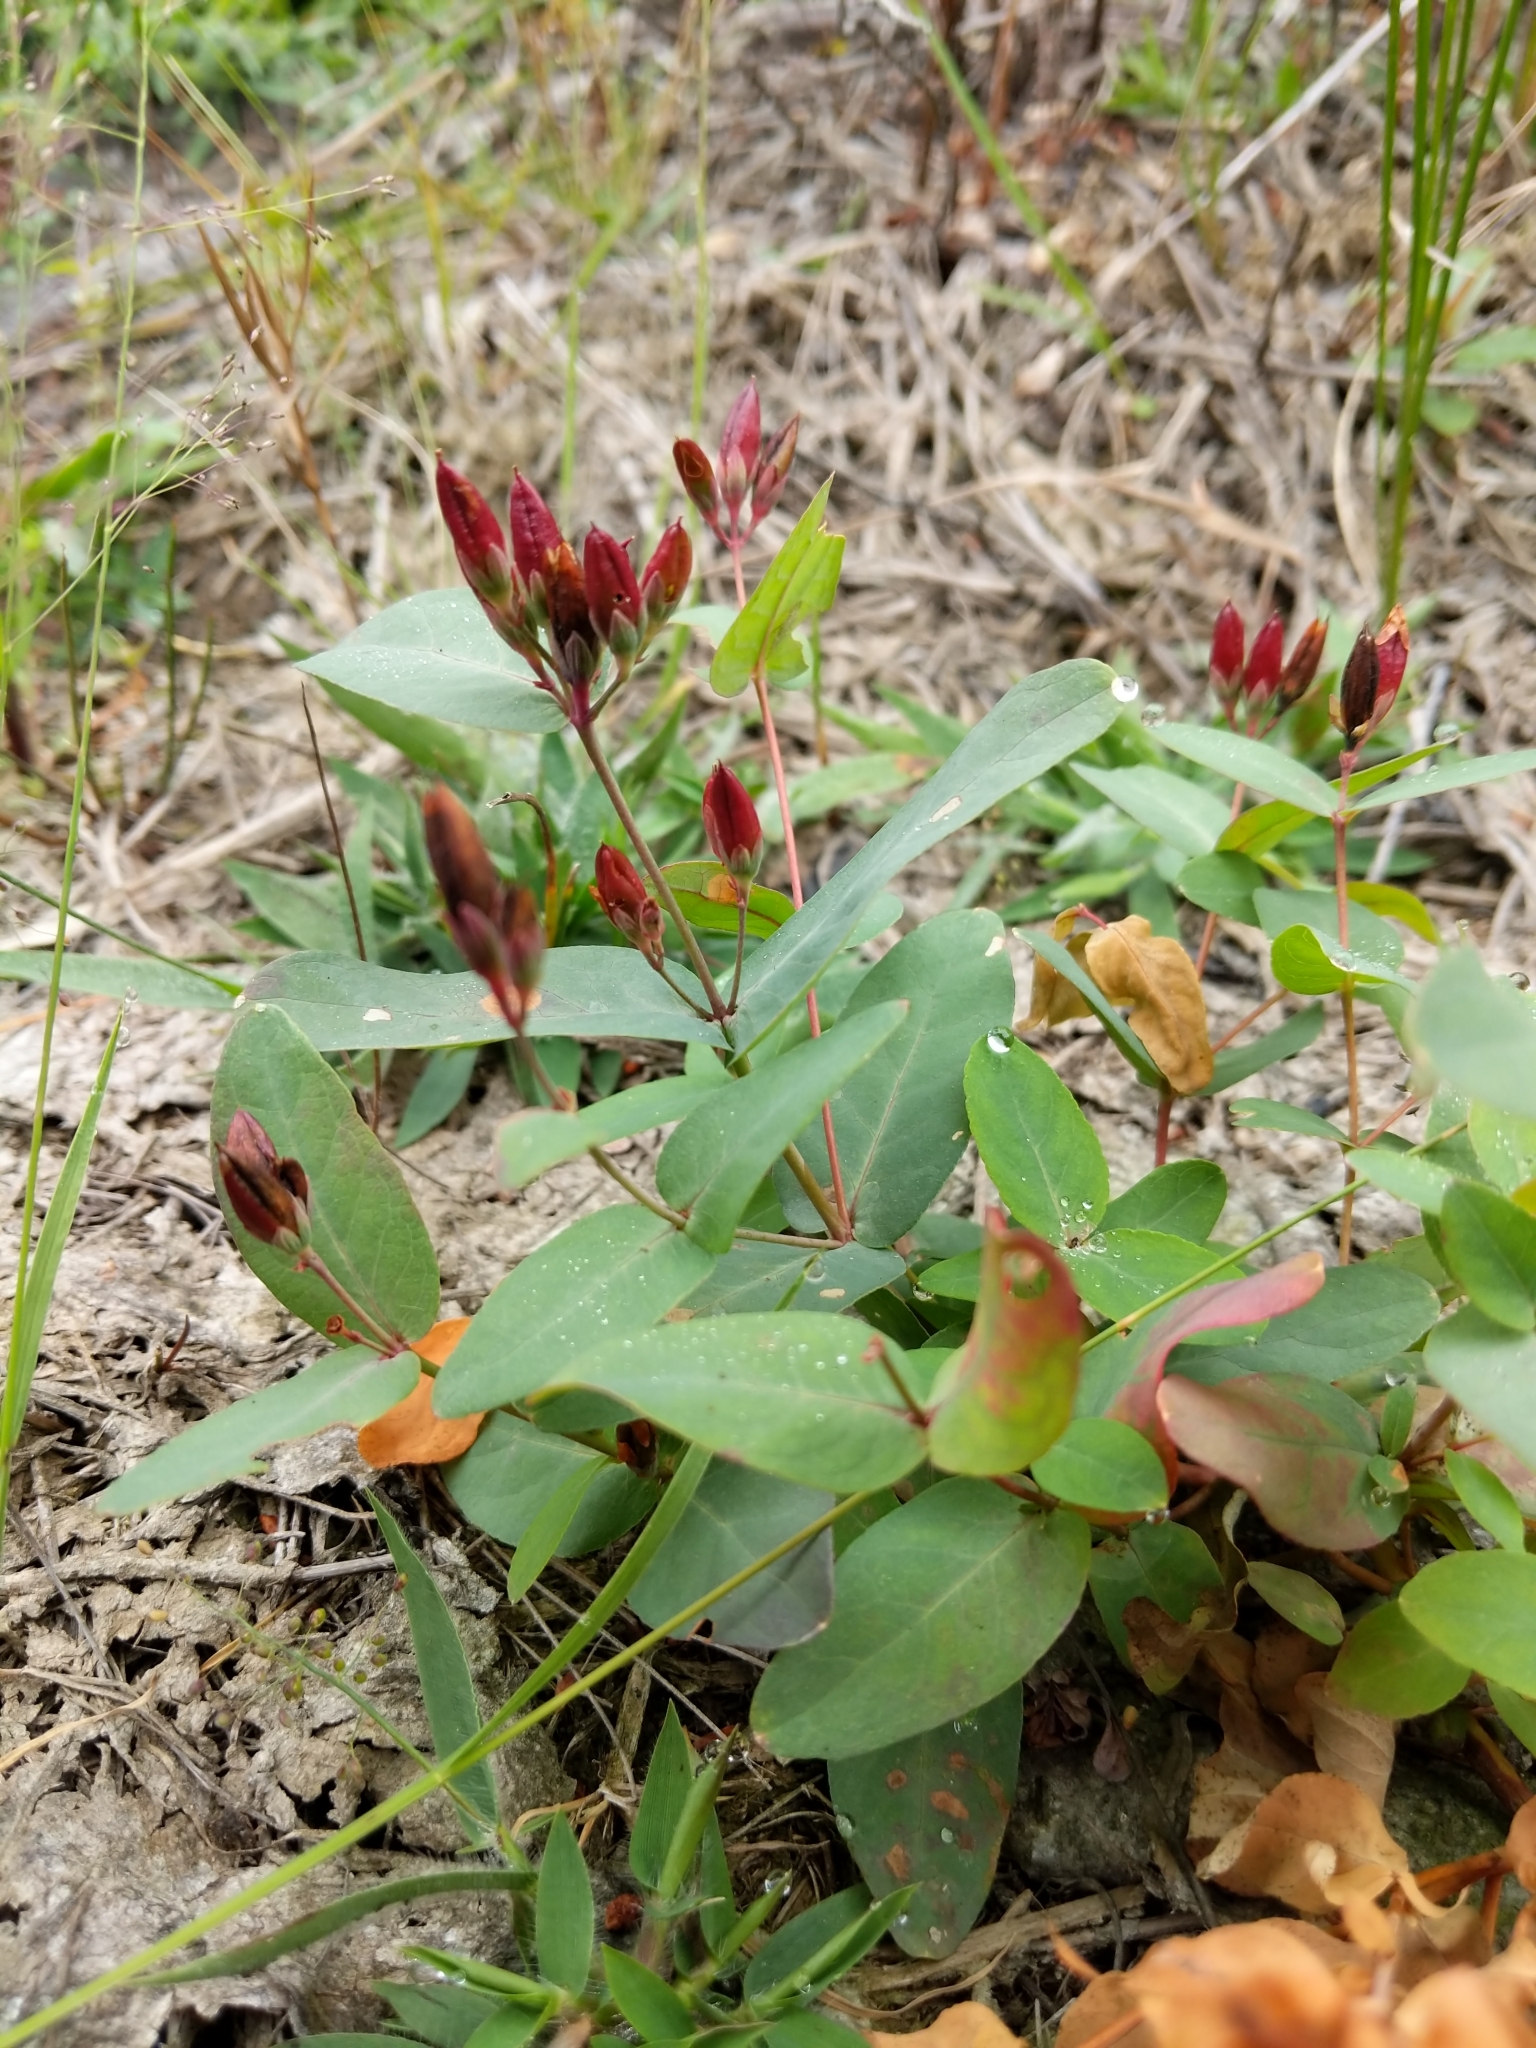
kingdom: Plantae
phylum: Tracheophyta
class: Magnoliopsida
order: Malpighiales
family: Hypericaceae
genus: Triadenum
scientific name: Triadenum fraseri
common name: Fraser's marsh st. johnswort
